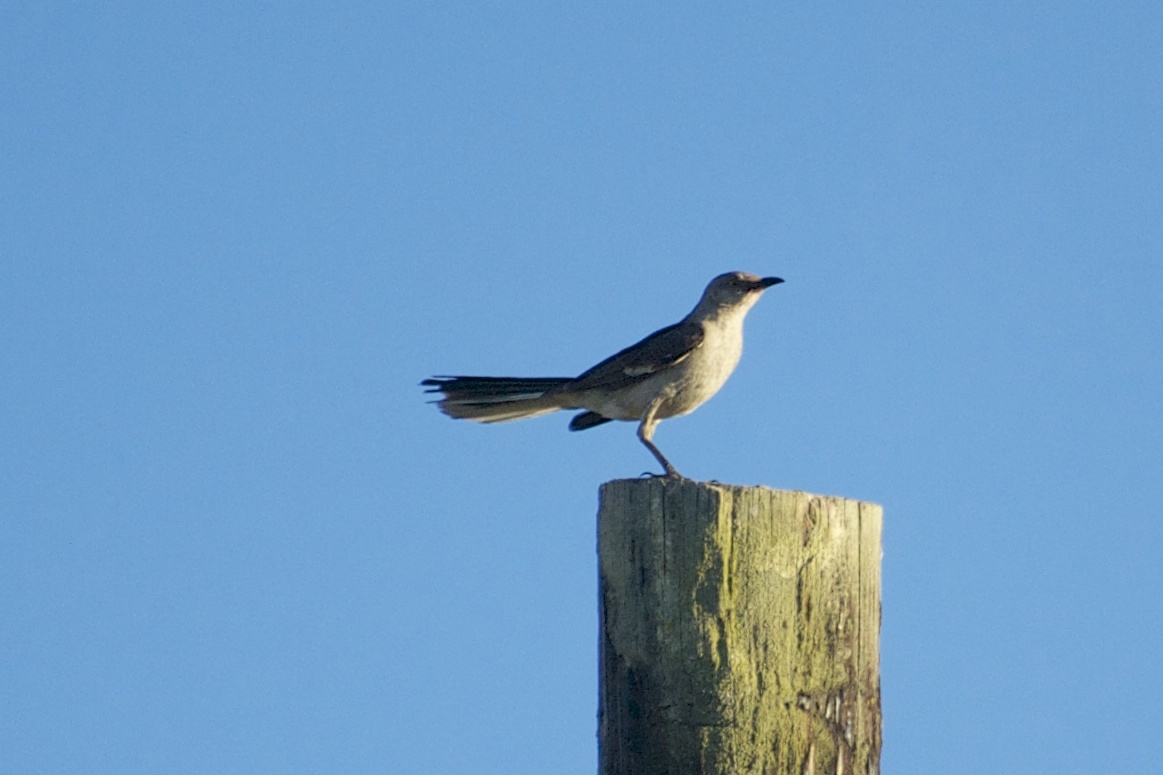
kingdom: Animalia
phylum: Chordata
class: Aves
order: Passeriformes
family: Mimidae
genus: Mimus
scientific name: Mimus polyglottos
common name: Northern mockingbird
